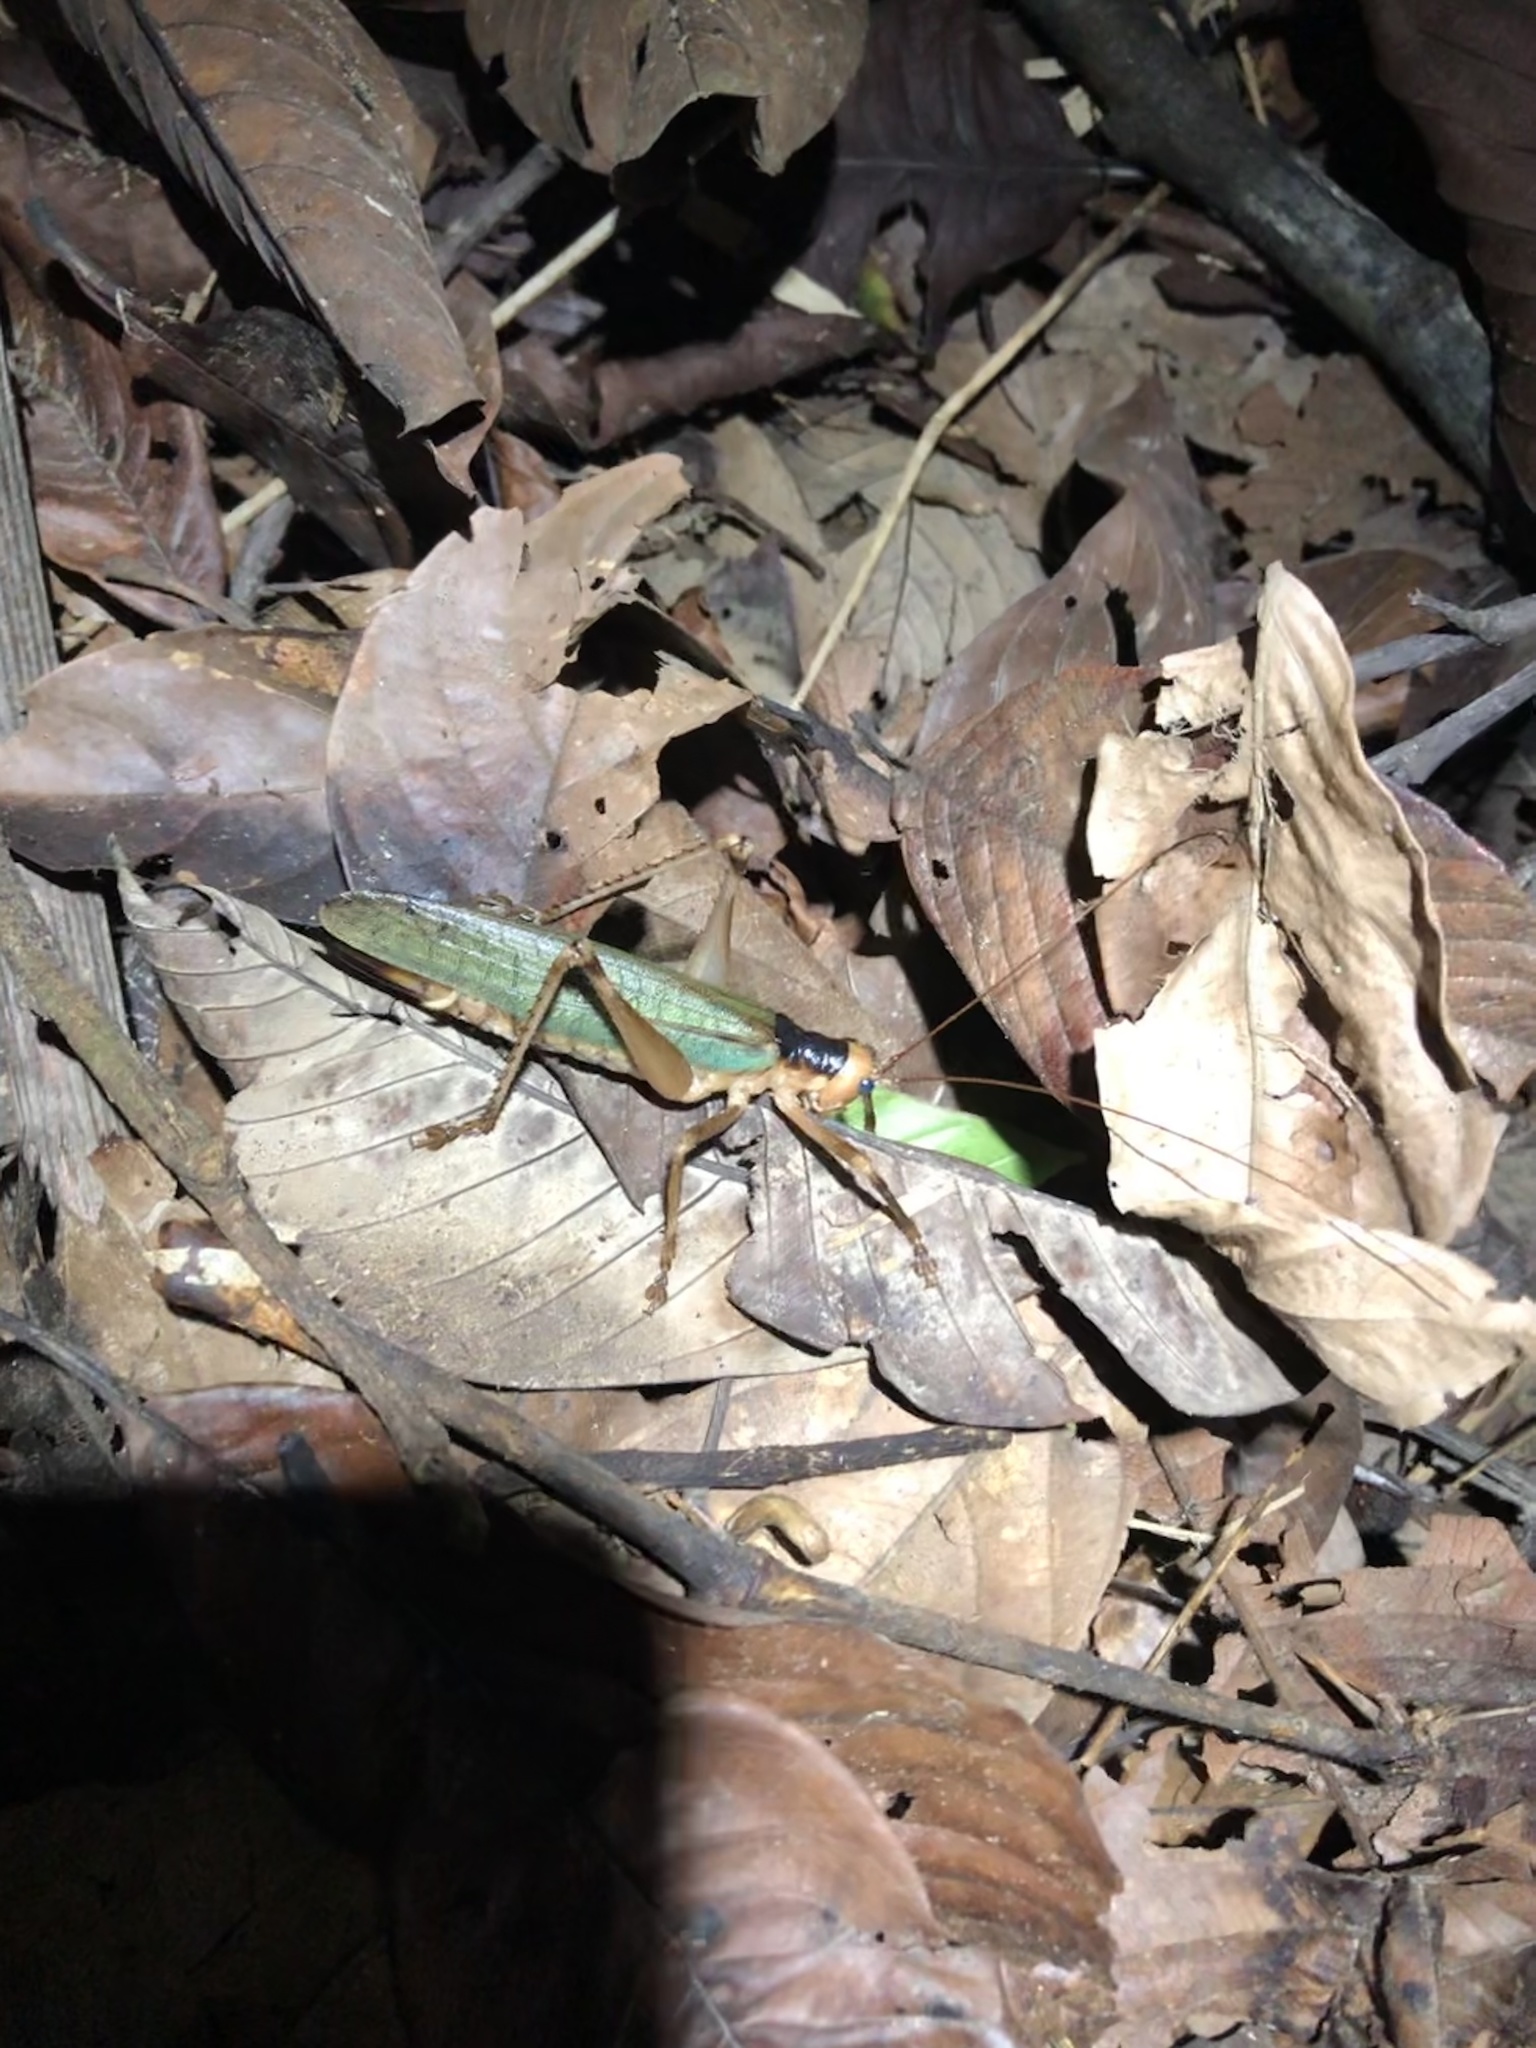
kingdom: Animalia
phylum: Arthropoda
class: Insecta
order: Orthoptera
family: Tettigoniidae
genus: Leiobliastes
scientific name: Leiobliastes laevis
